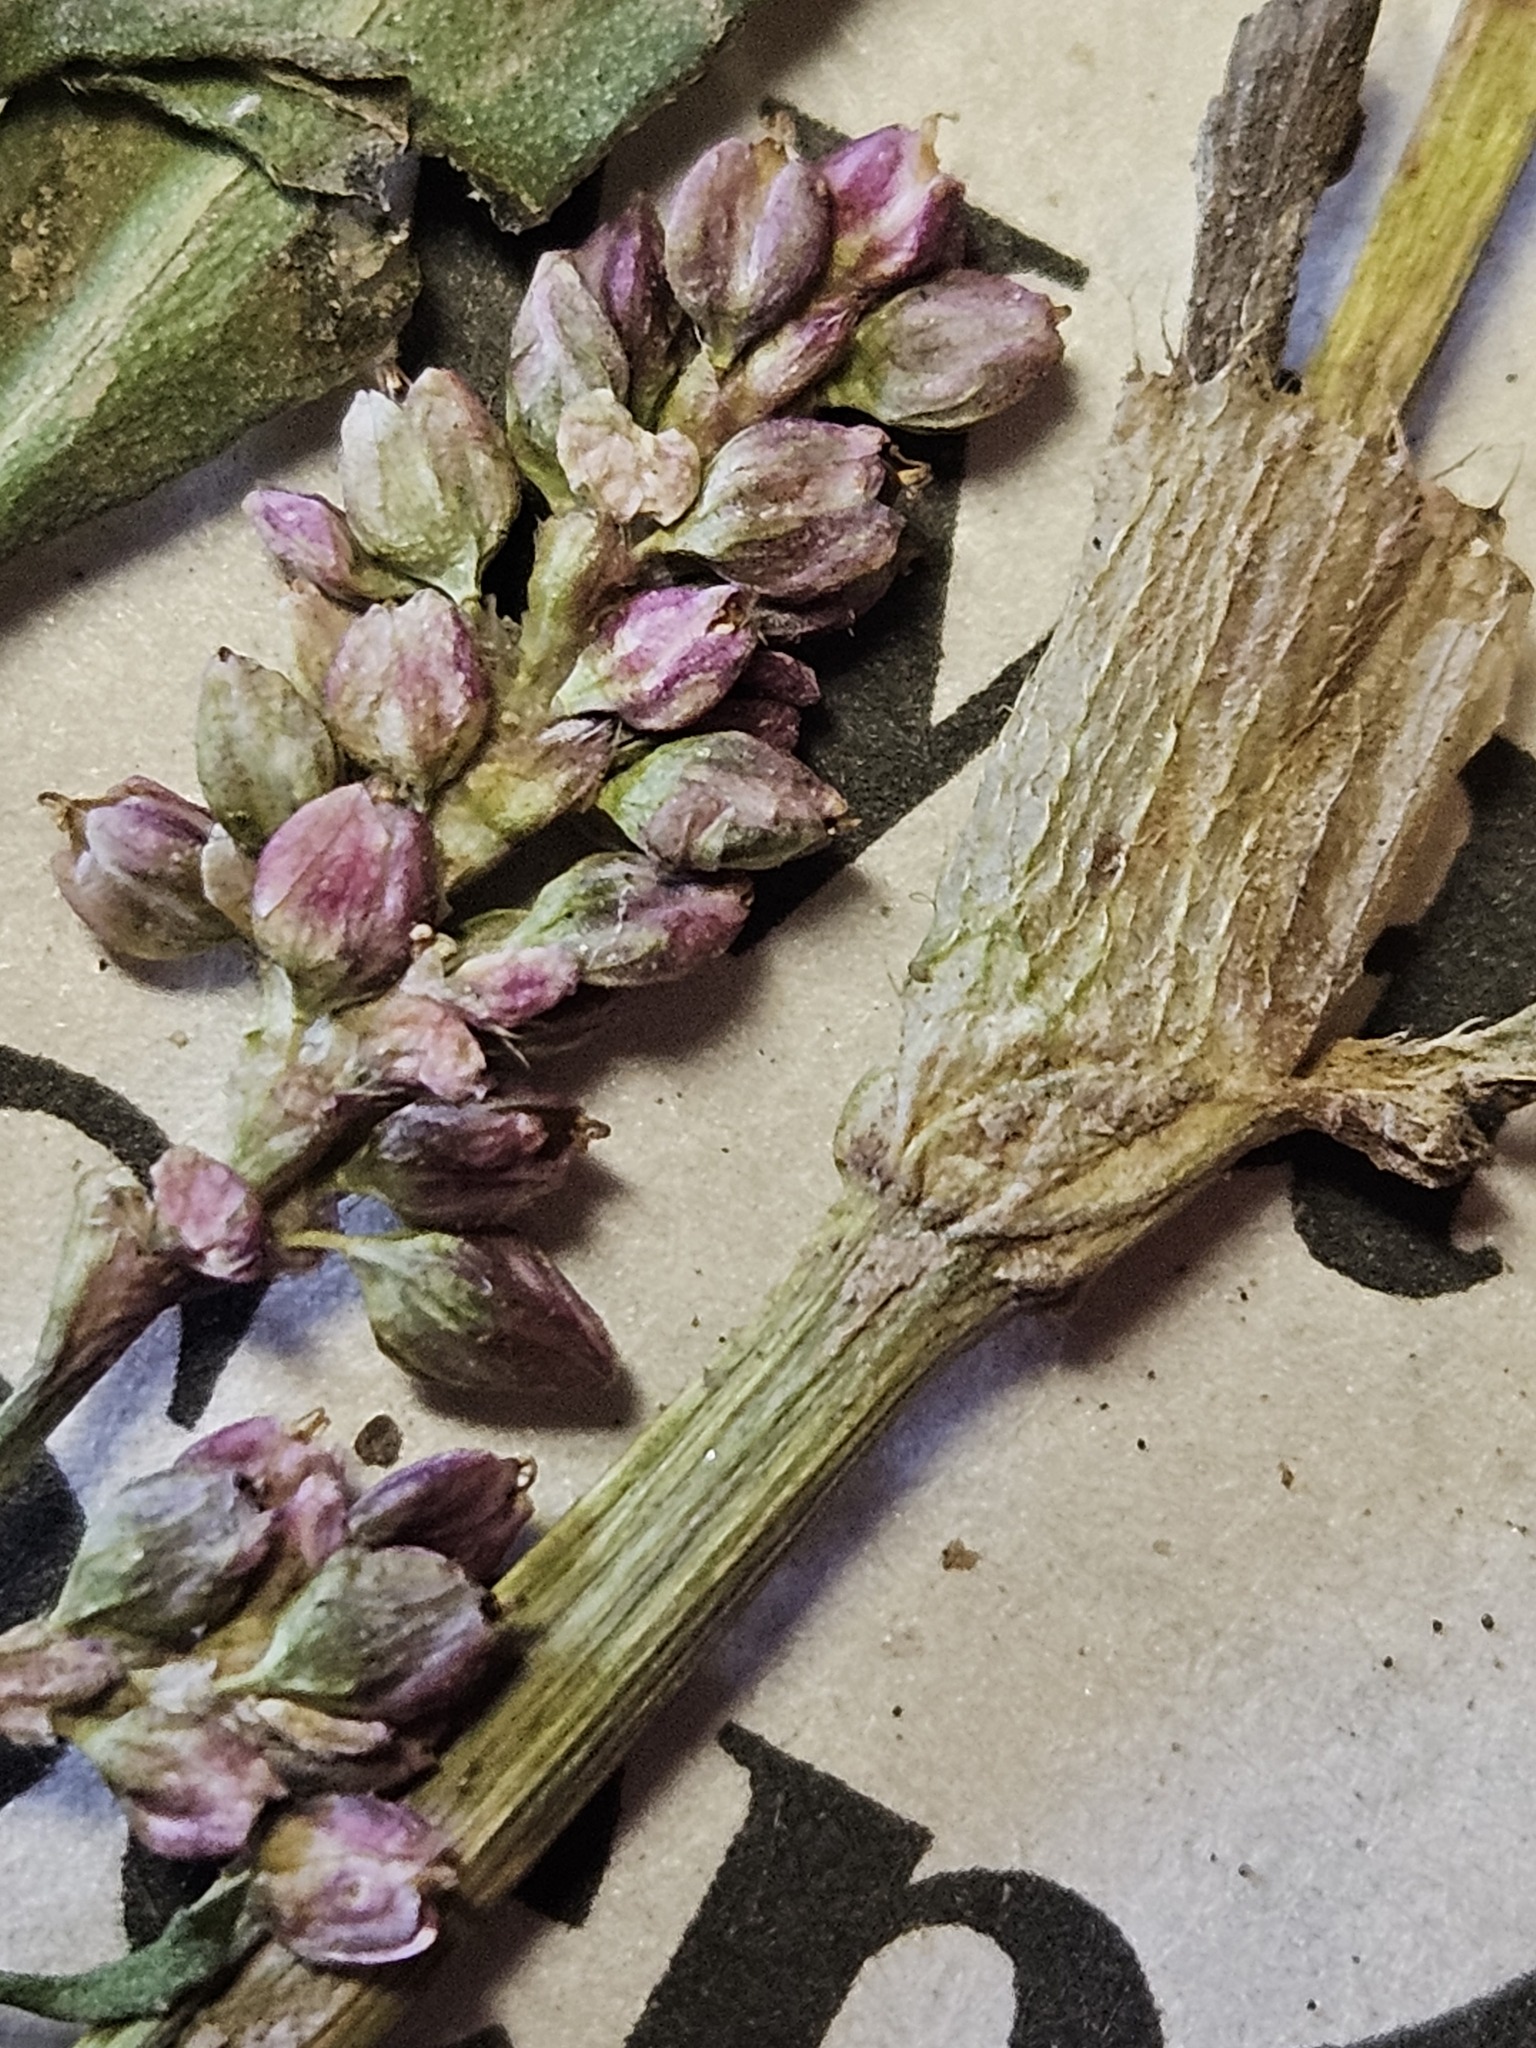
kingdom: Plantae
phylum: Tracheophyta
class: Magnoliopsida
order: Caryophyllales
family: Polygonaceae
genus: Persicaria
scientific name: Persicaria maculosa
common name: Redshank
